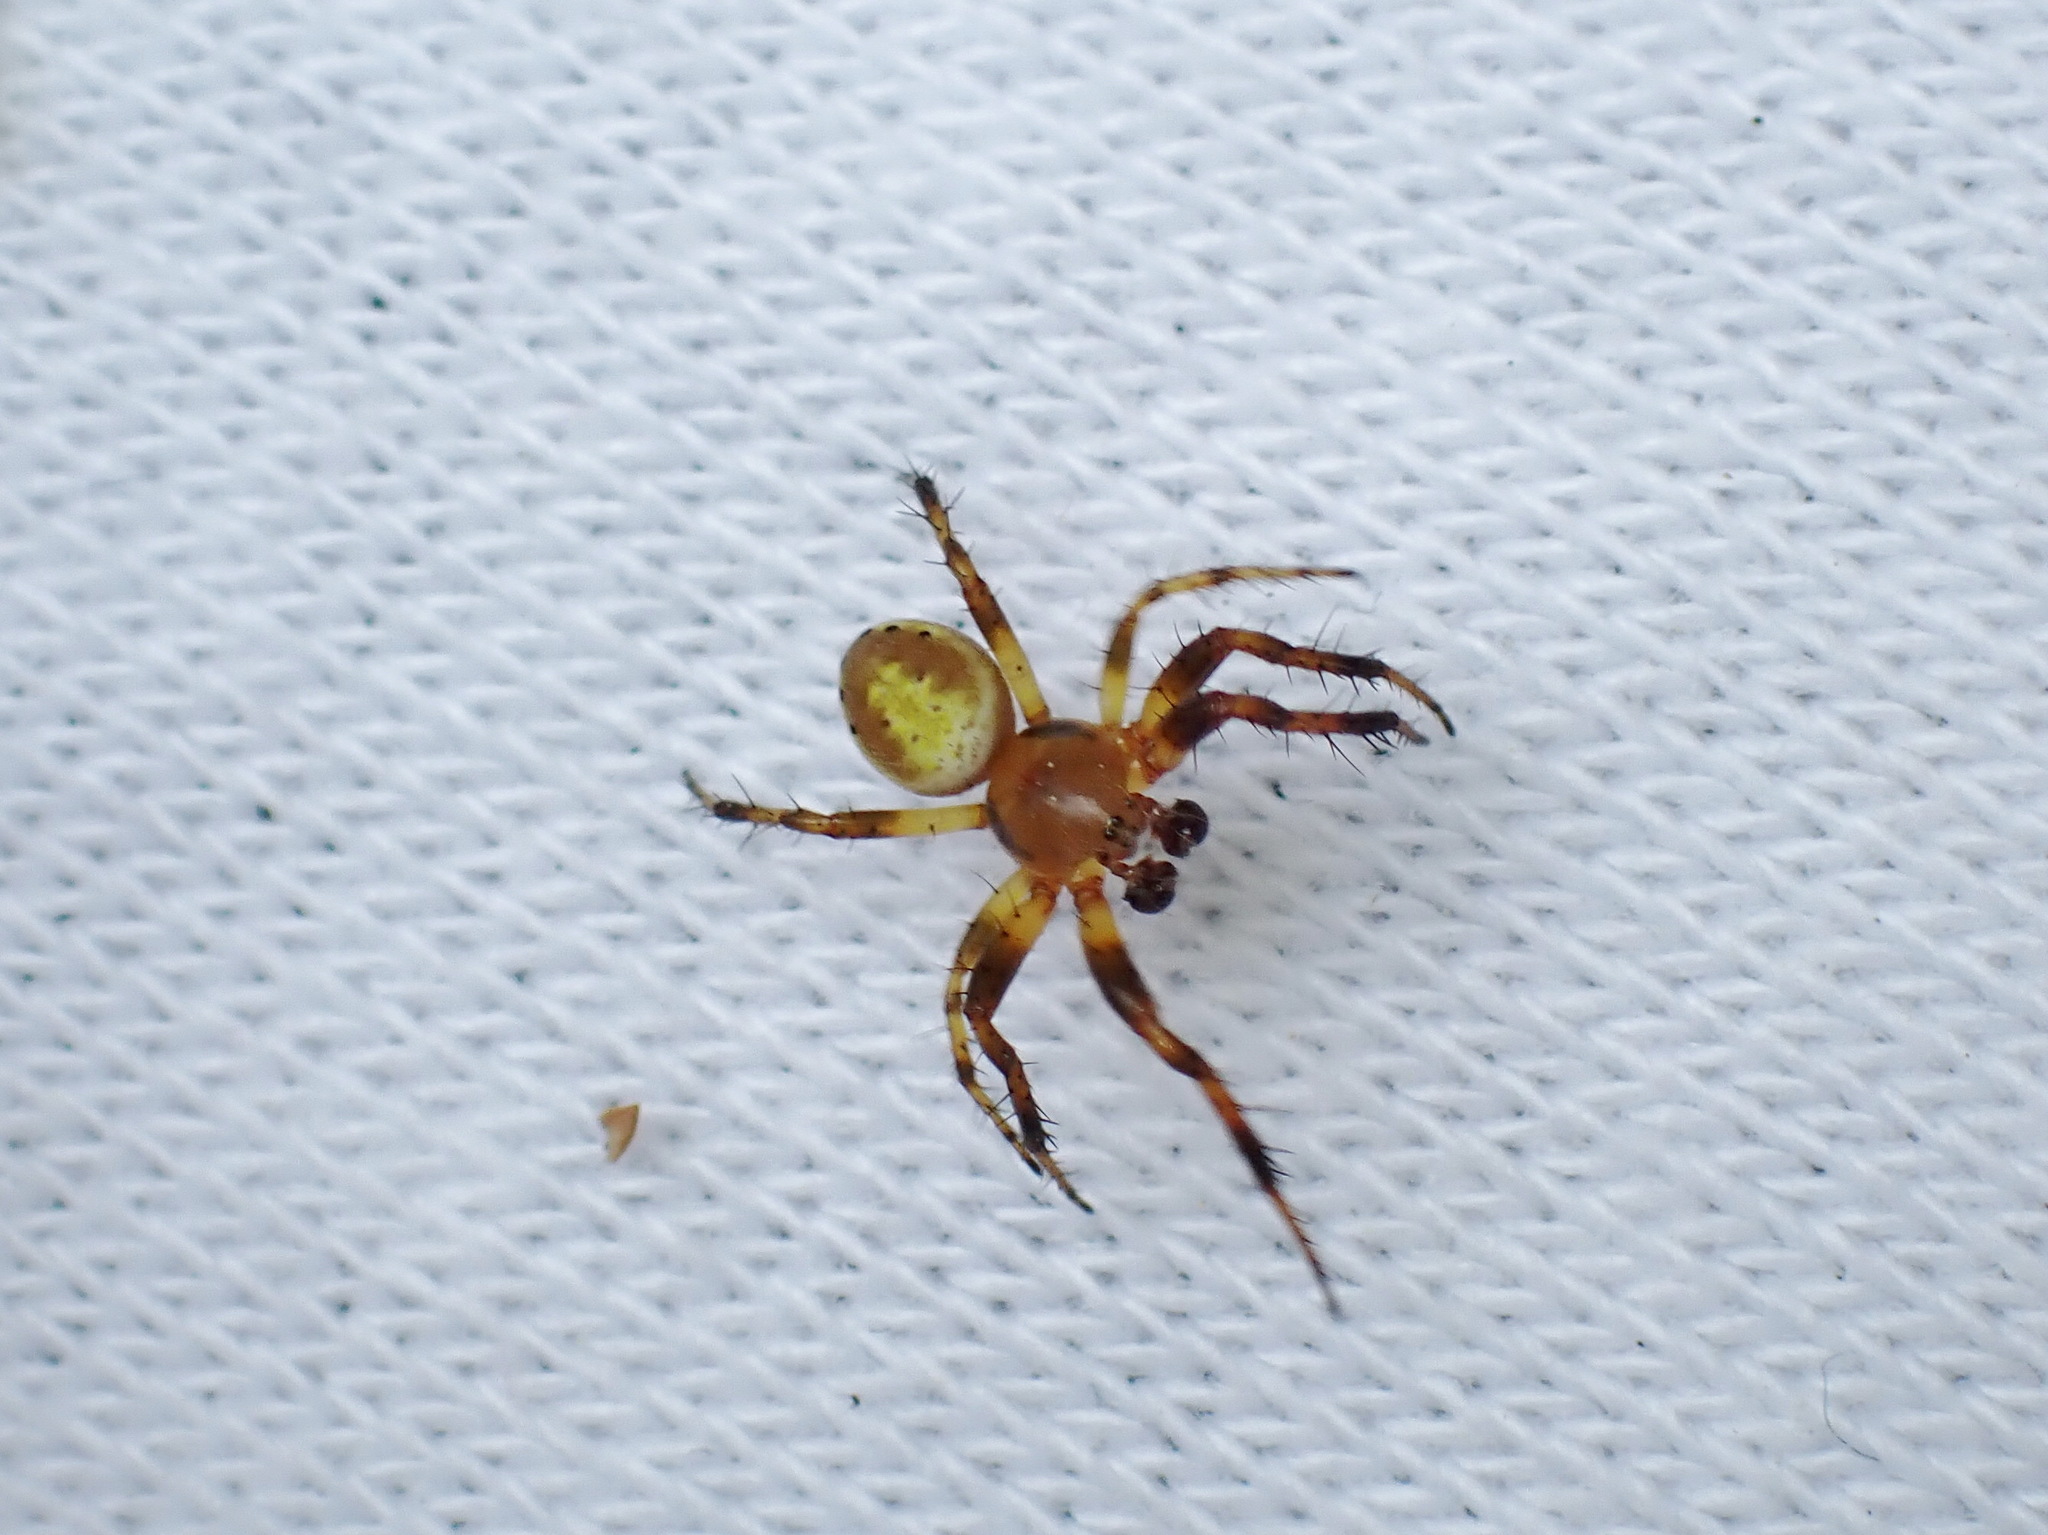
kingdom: Animalia
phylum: Arthropoda
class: Arachnida
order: Araneae
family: Araneidae
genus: Araniella
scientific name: Araniella displicata
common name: Sixspotted orb weaver
